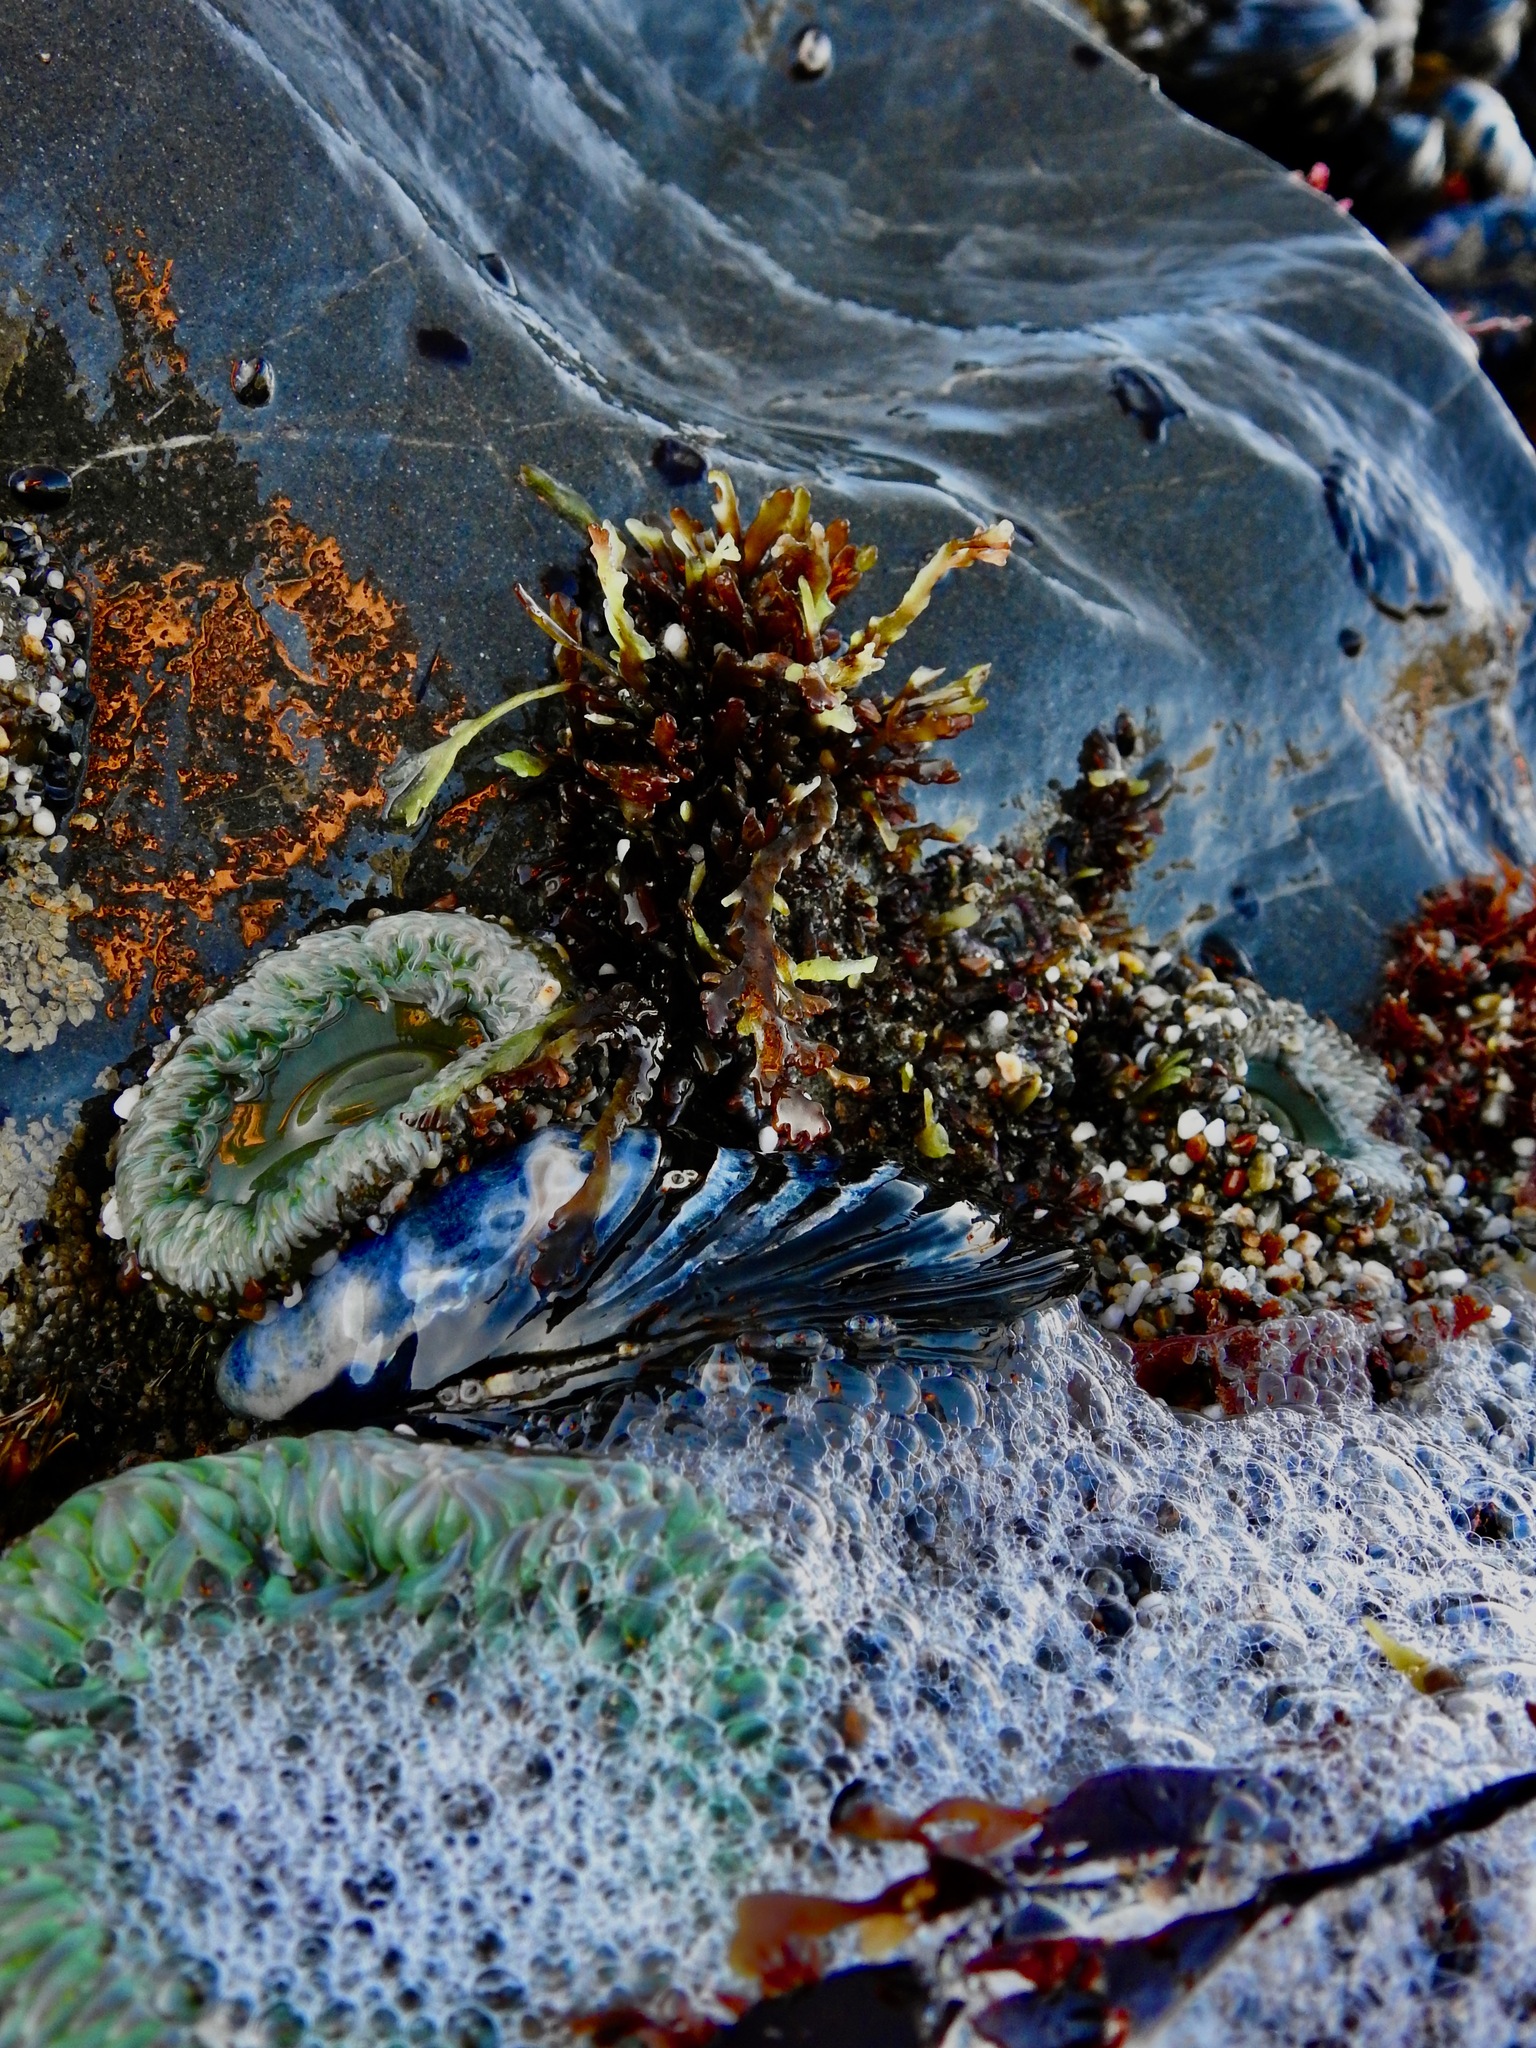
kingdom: Animalia
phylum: Cnidaria
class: Anthozoa
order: Actiniaria
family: Actiniidae
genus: Anthopleura
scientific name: Anthopleura xanthogrammica
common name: Giant green anemone
